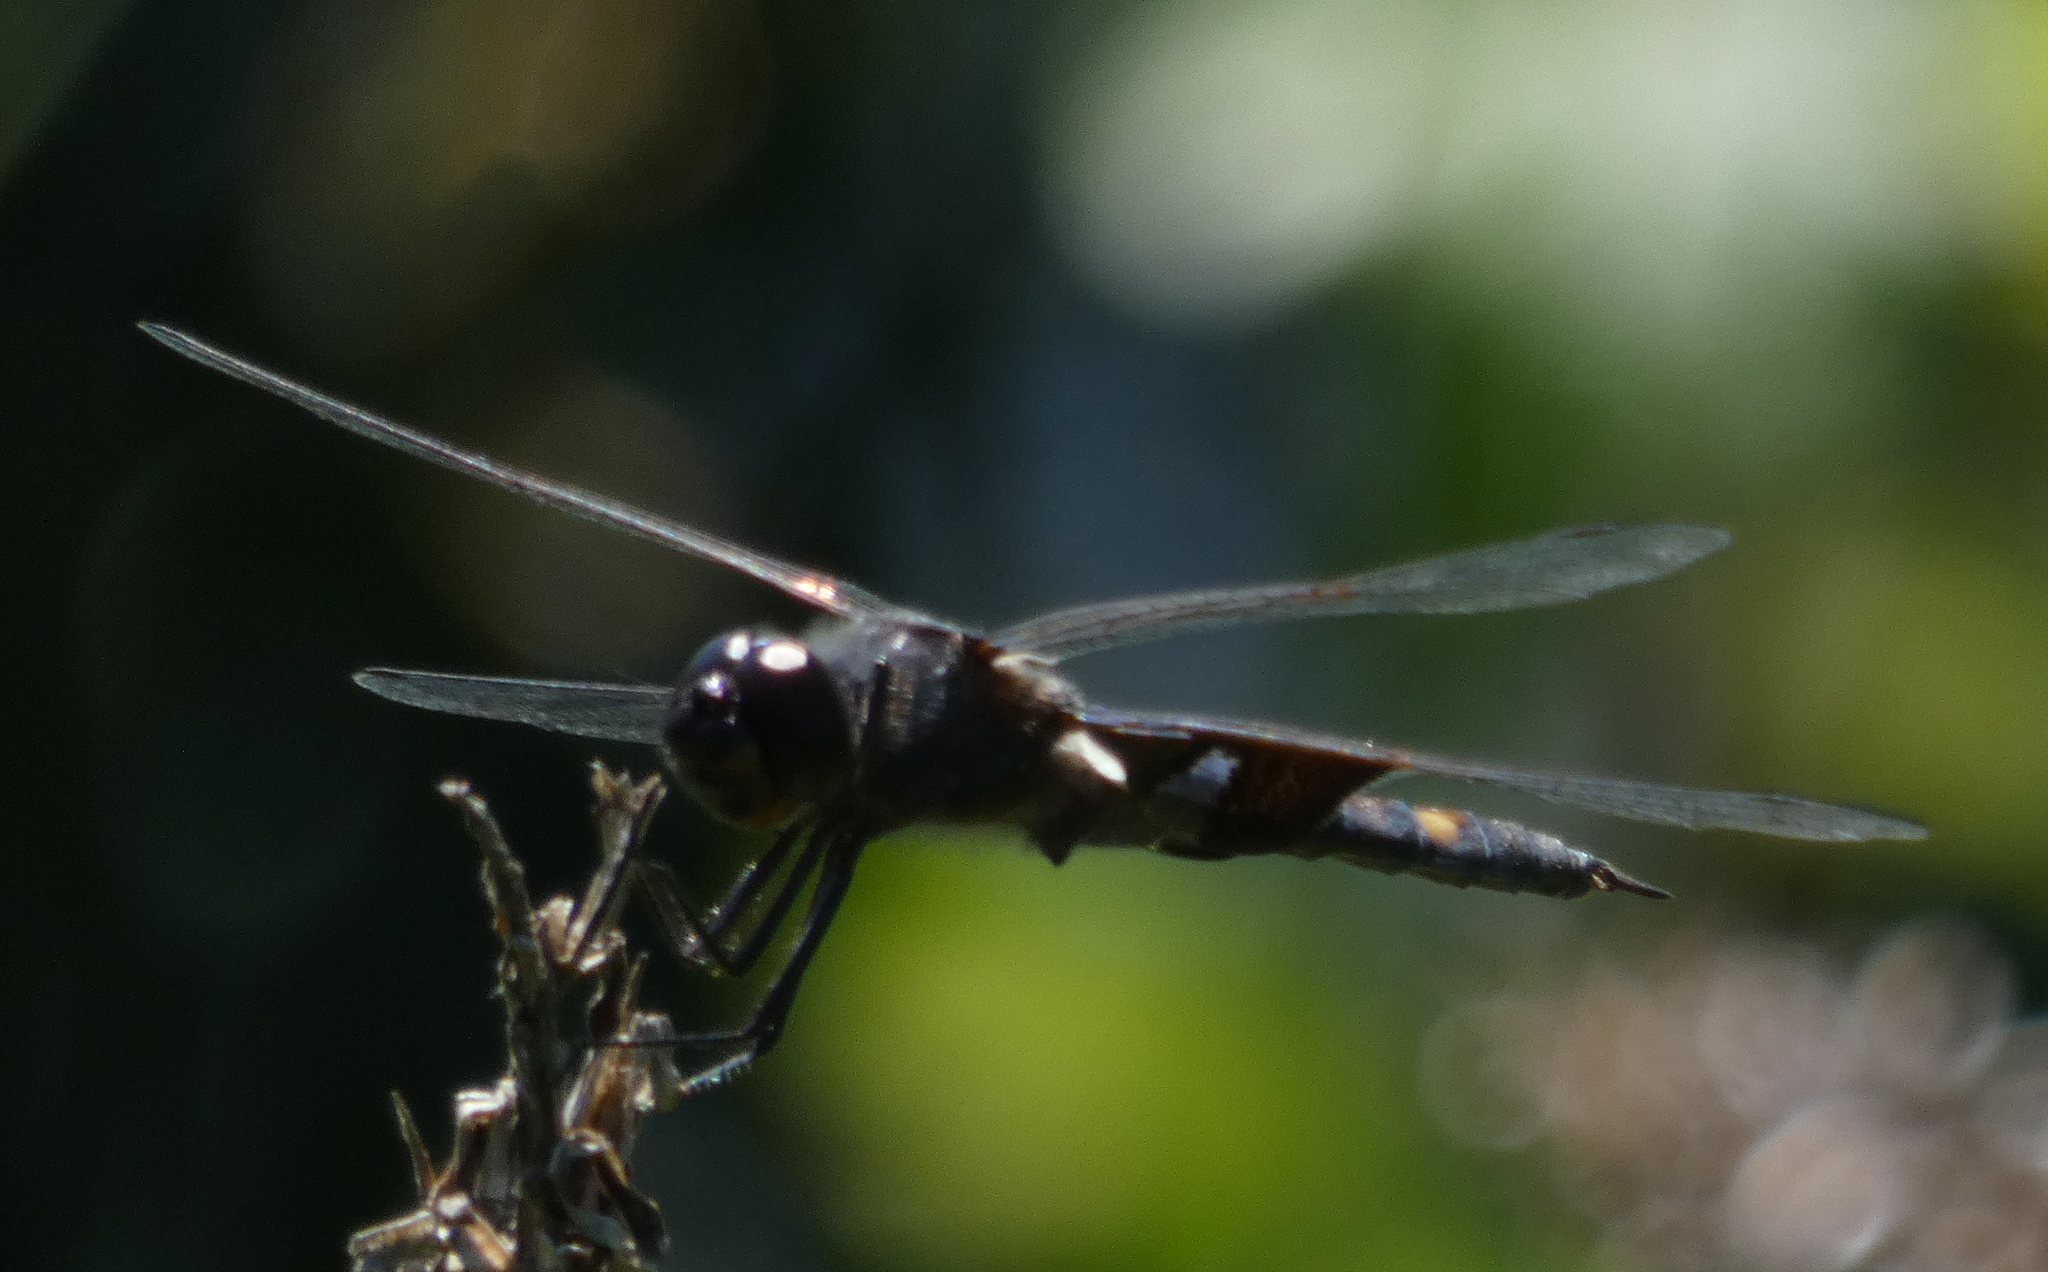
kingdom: Animalia
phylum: Arthropoda
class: Insecta
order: Odonata
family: Libellulidae
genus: Tramea
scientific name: Tramea lacerata
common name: Black saddlebags
